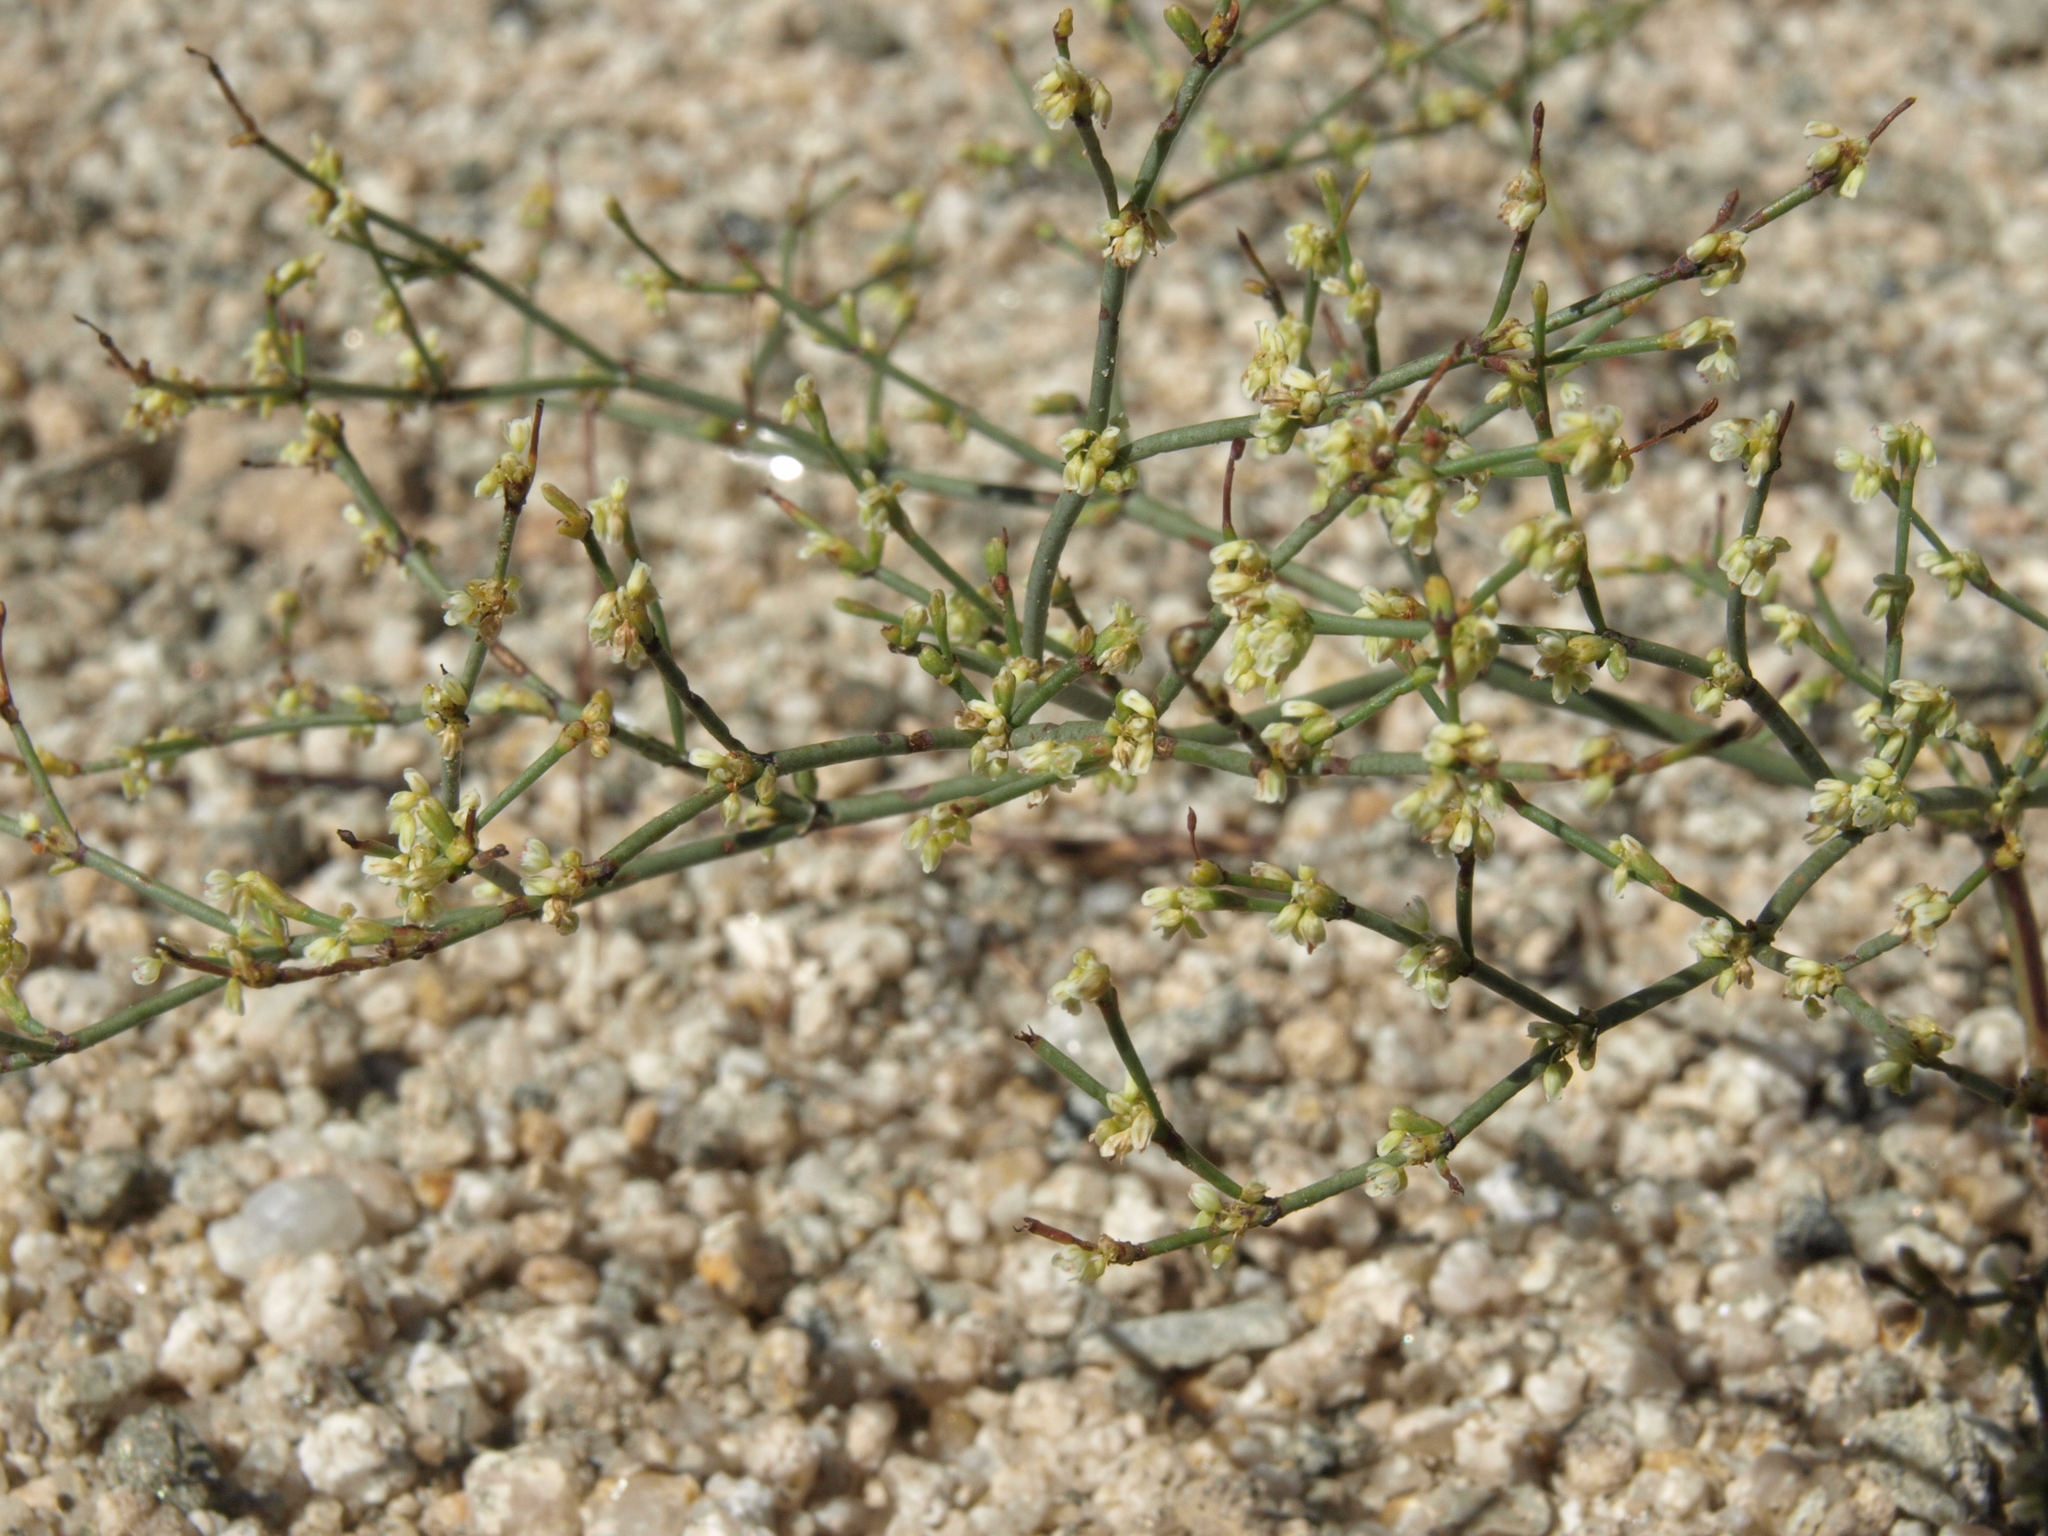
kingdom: Plantae
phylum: Tracheophyta
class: Magnoliopsida
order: Caryophyllales
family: Polygonaceae
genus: Eriogonum
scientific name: Eriogonum brachyanthum
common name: Short-flower wild buckwheat
